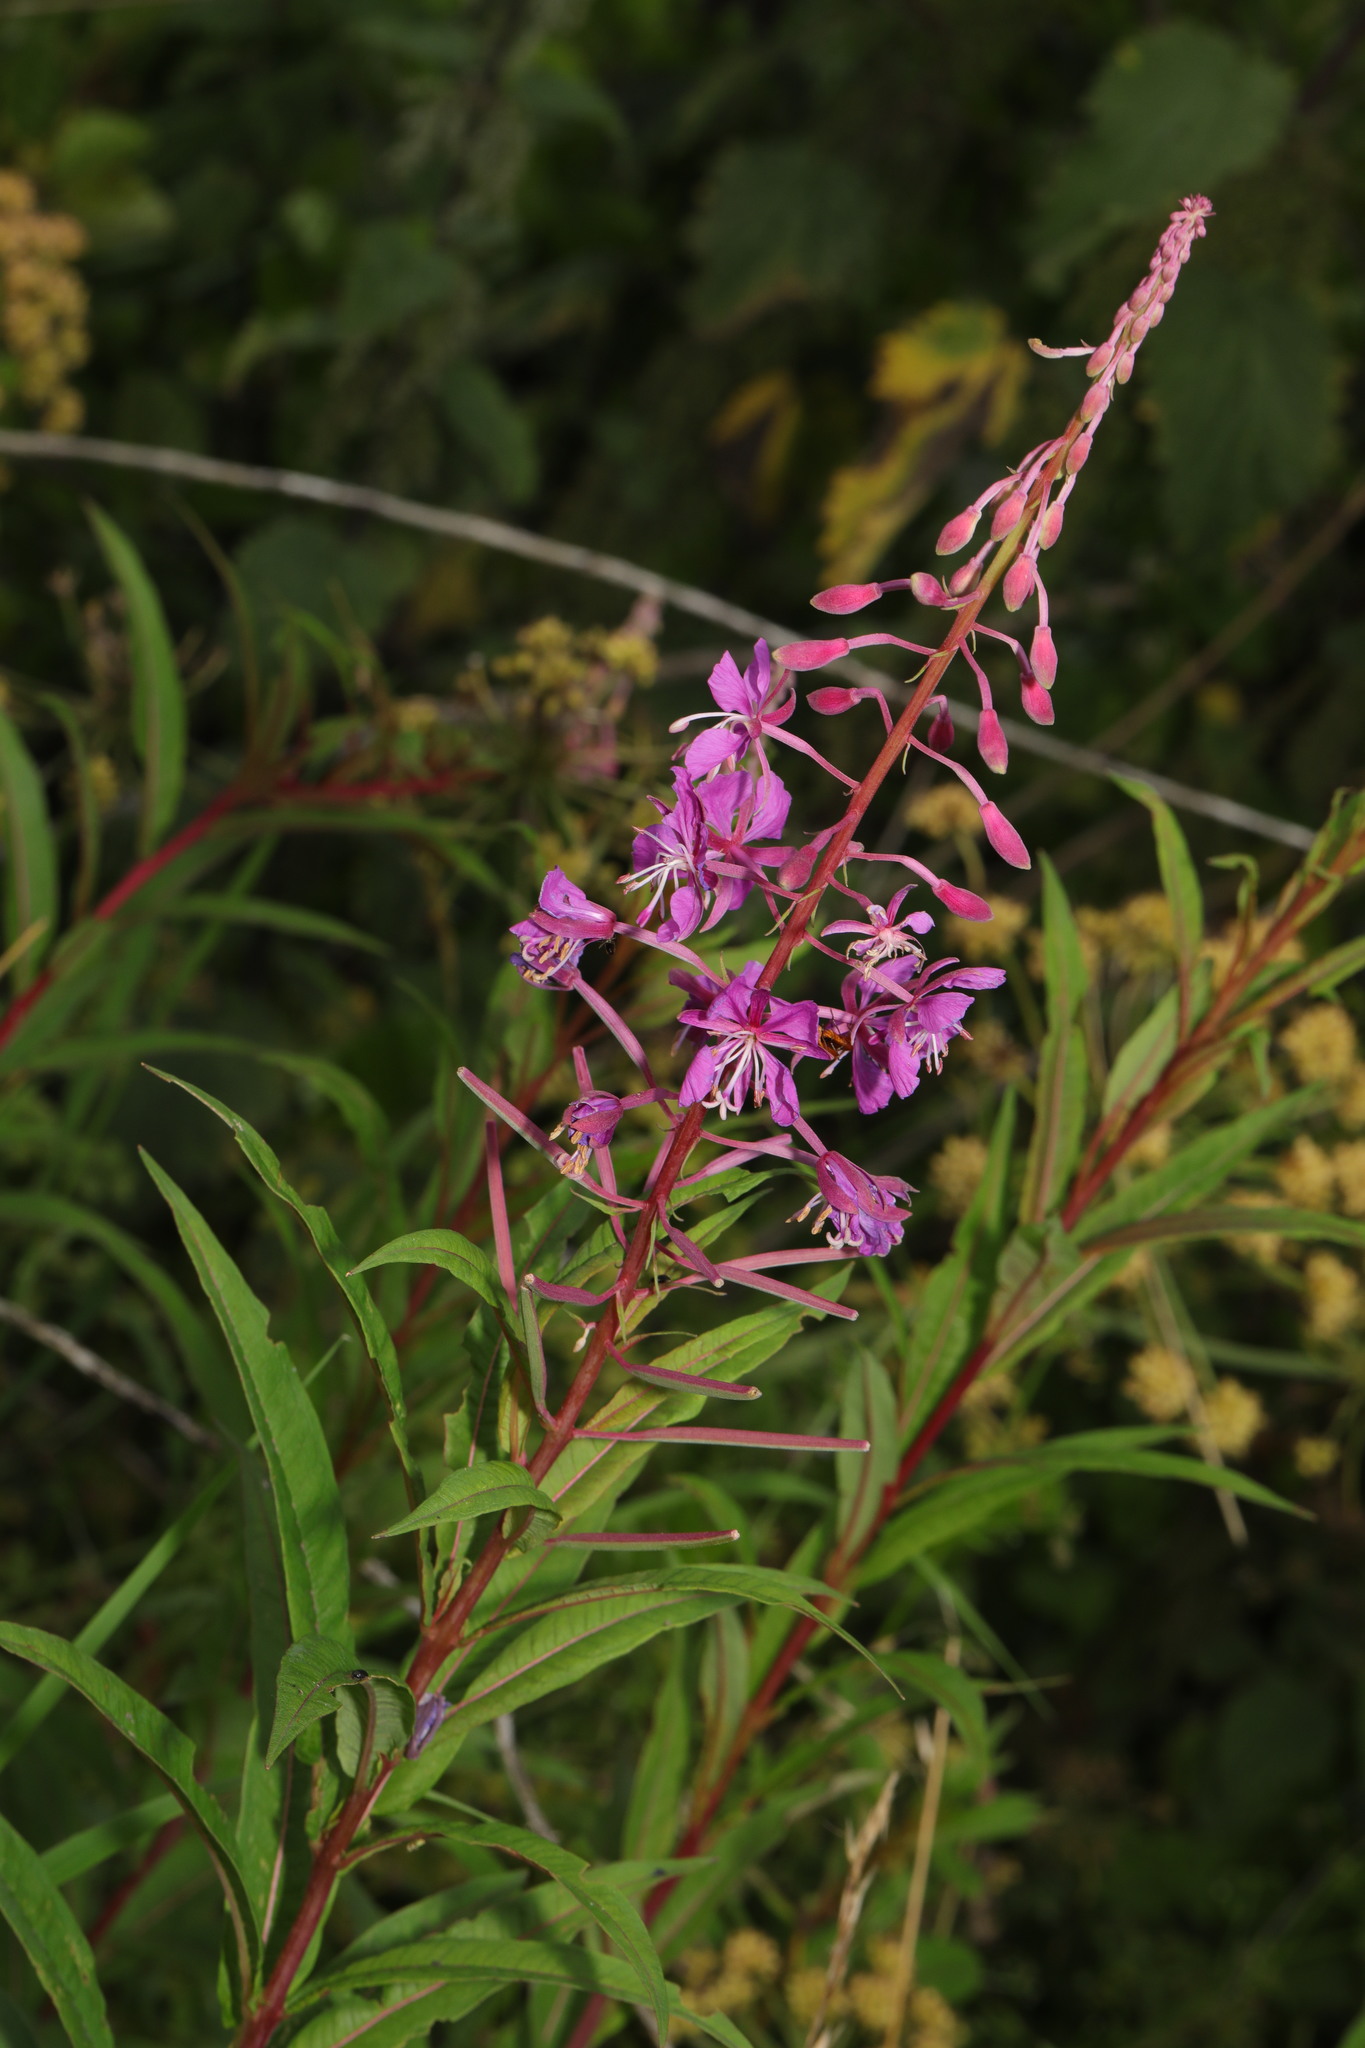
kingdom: Plantae
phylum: Tracheophyta
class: Magnoliopsida
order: Myrtales
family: Onagraceae
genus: Chamaenerion
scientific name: Chamaenerion angustifolium
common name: Fireweed
